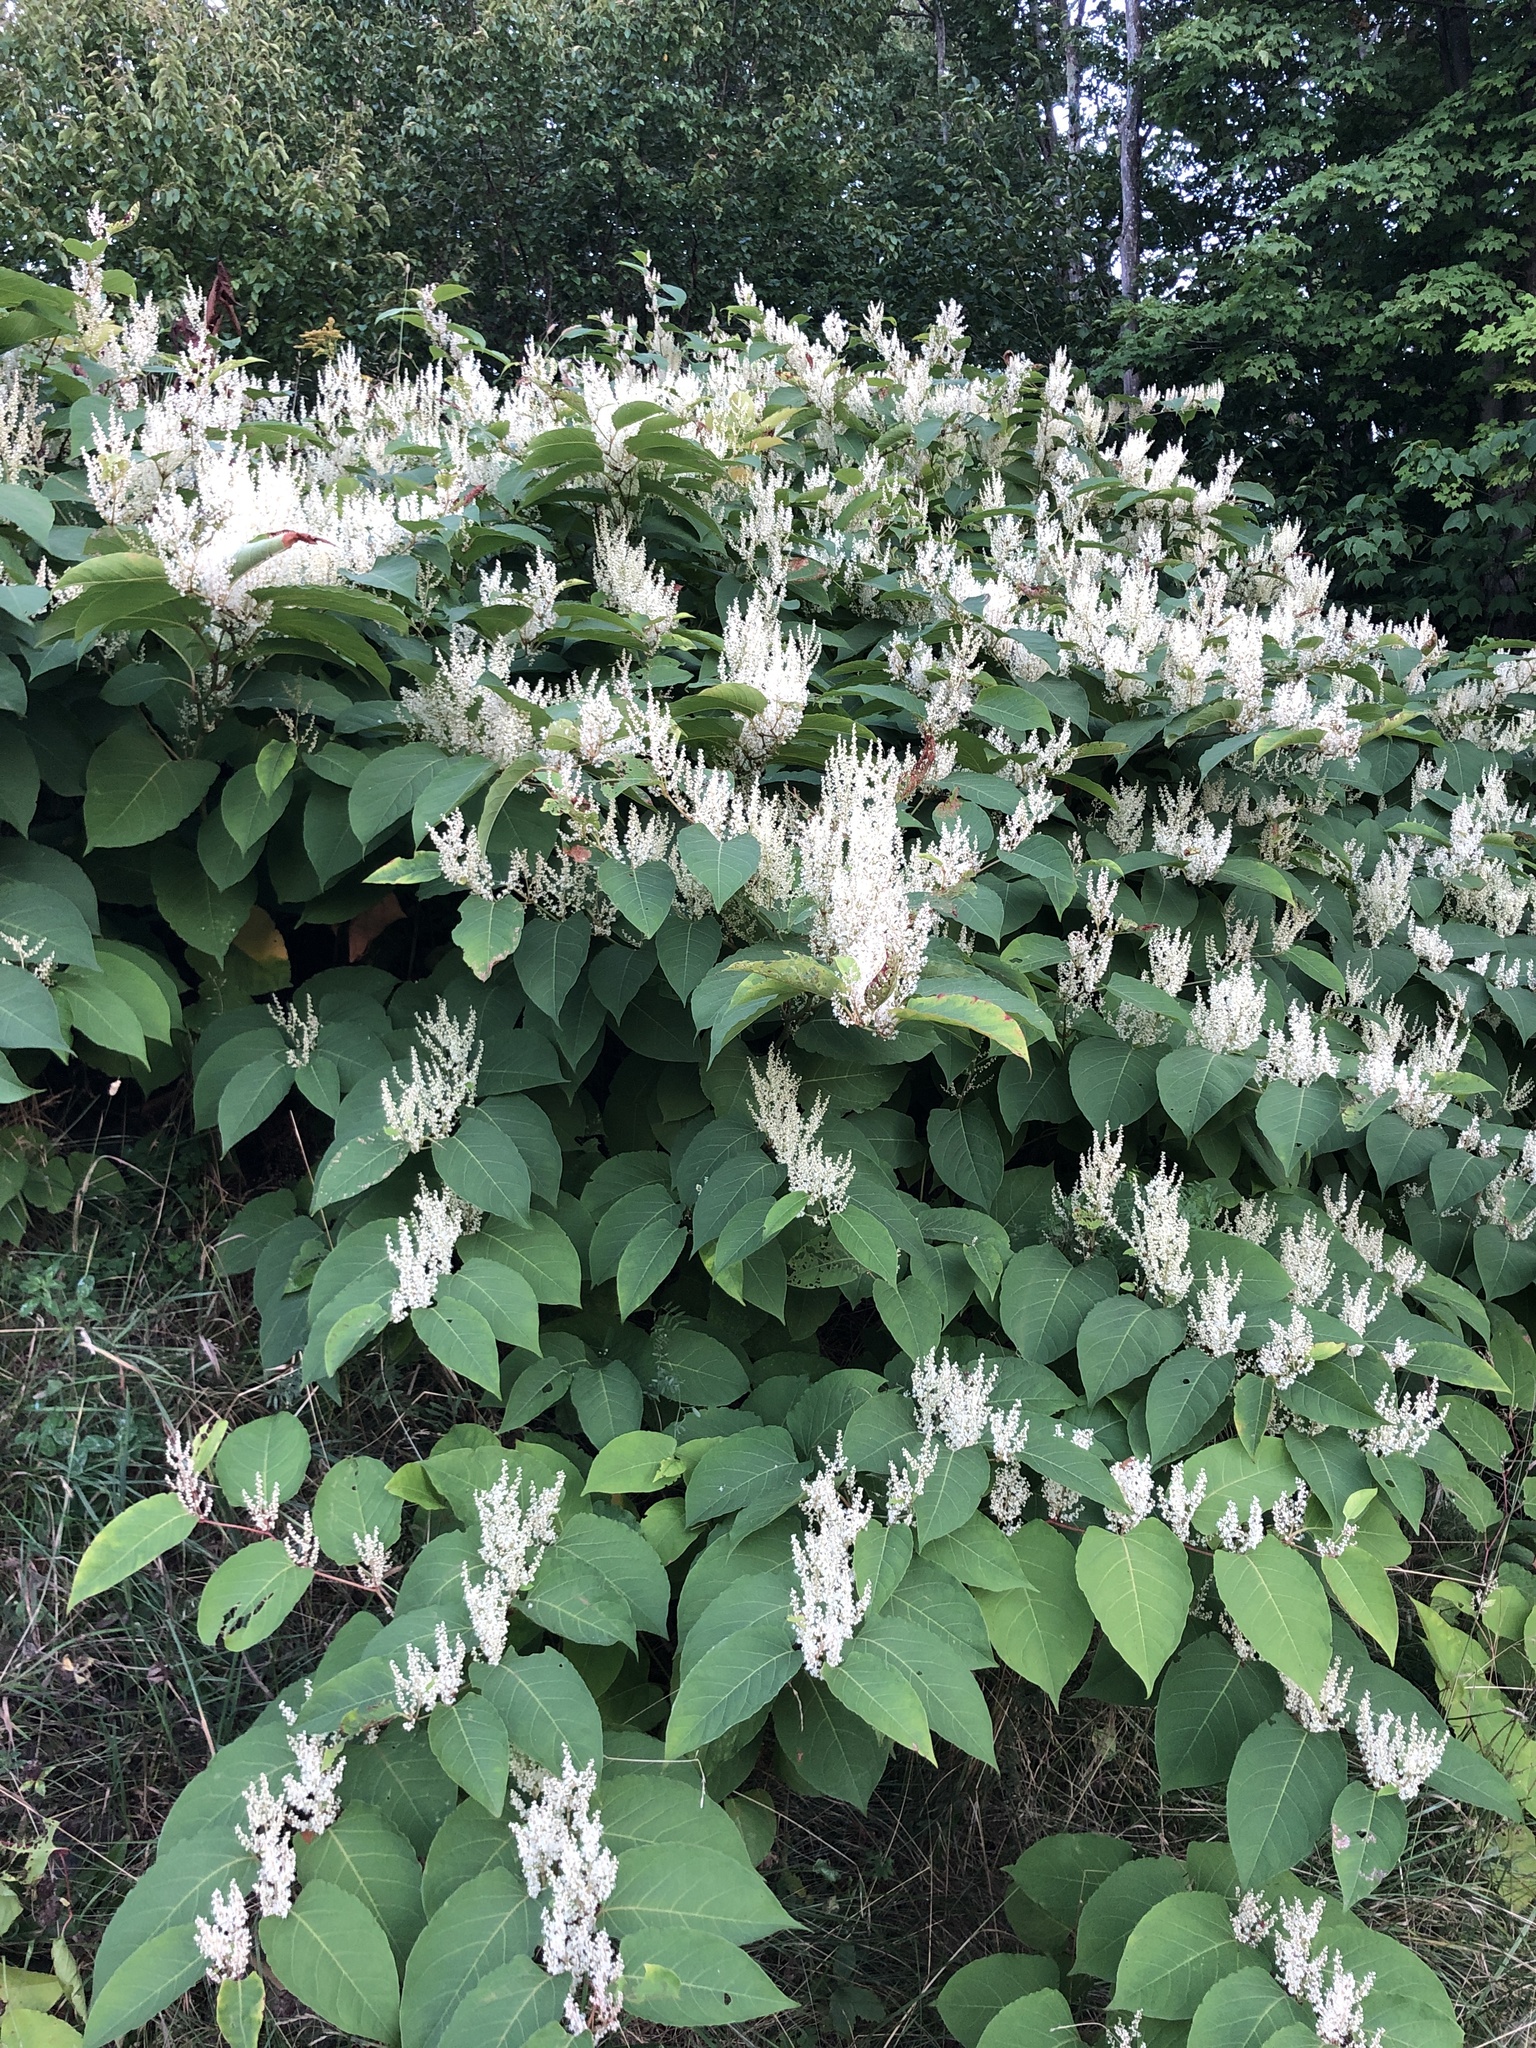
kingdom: Plantae
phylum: Tracheophyta
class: Magnoliopsida
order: Caryophyllales
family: Polygonaceae
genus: Reynoutria
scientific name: Reynoutria japonica
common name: Japanese knotweed
